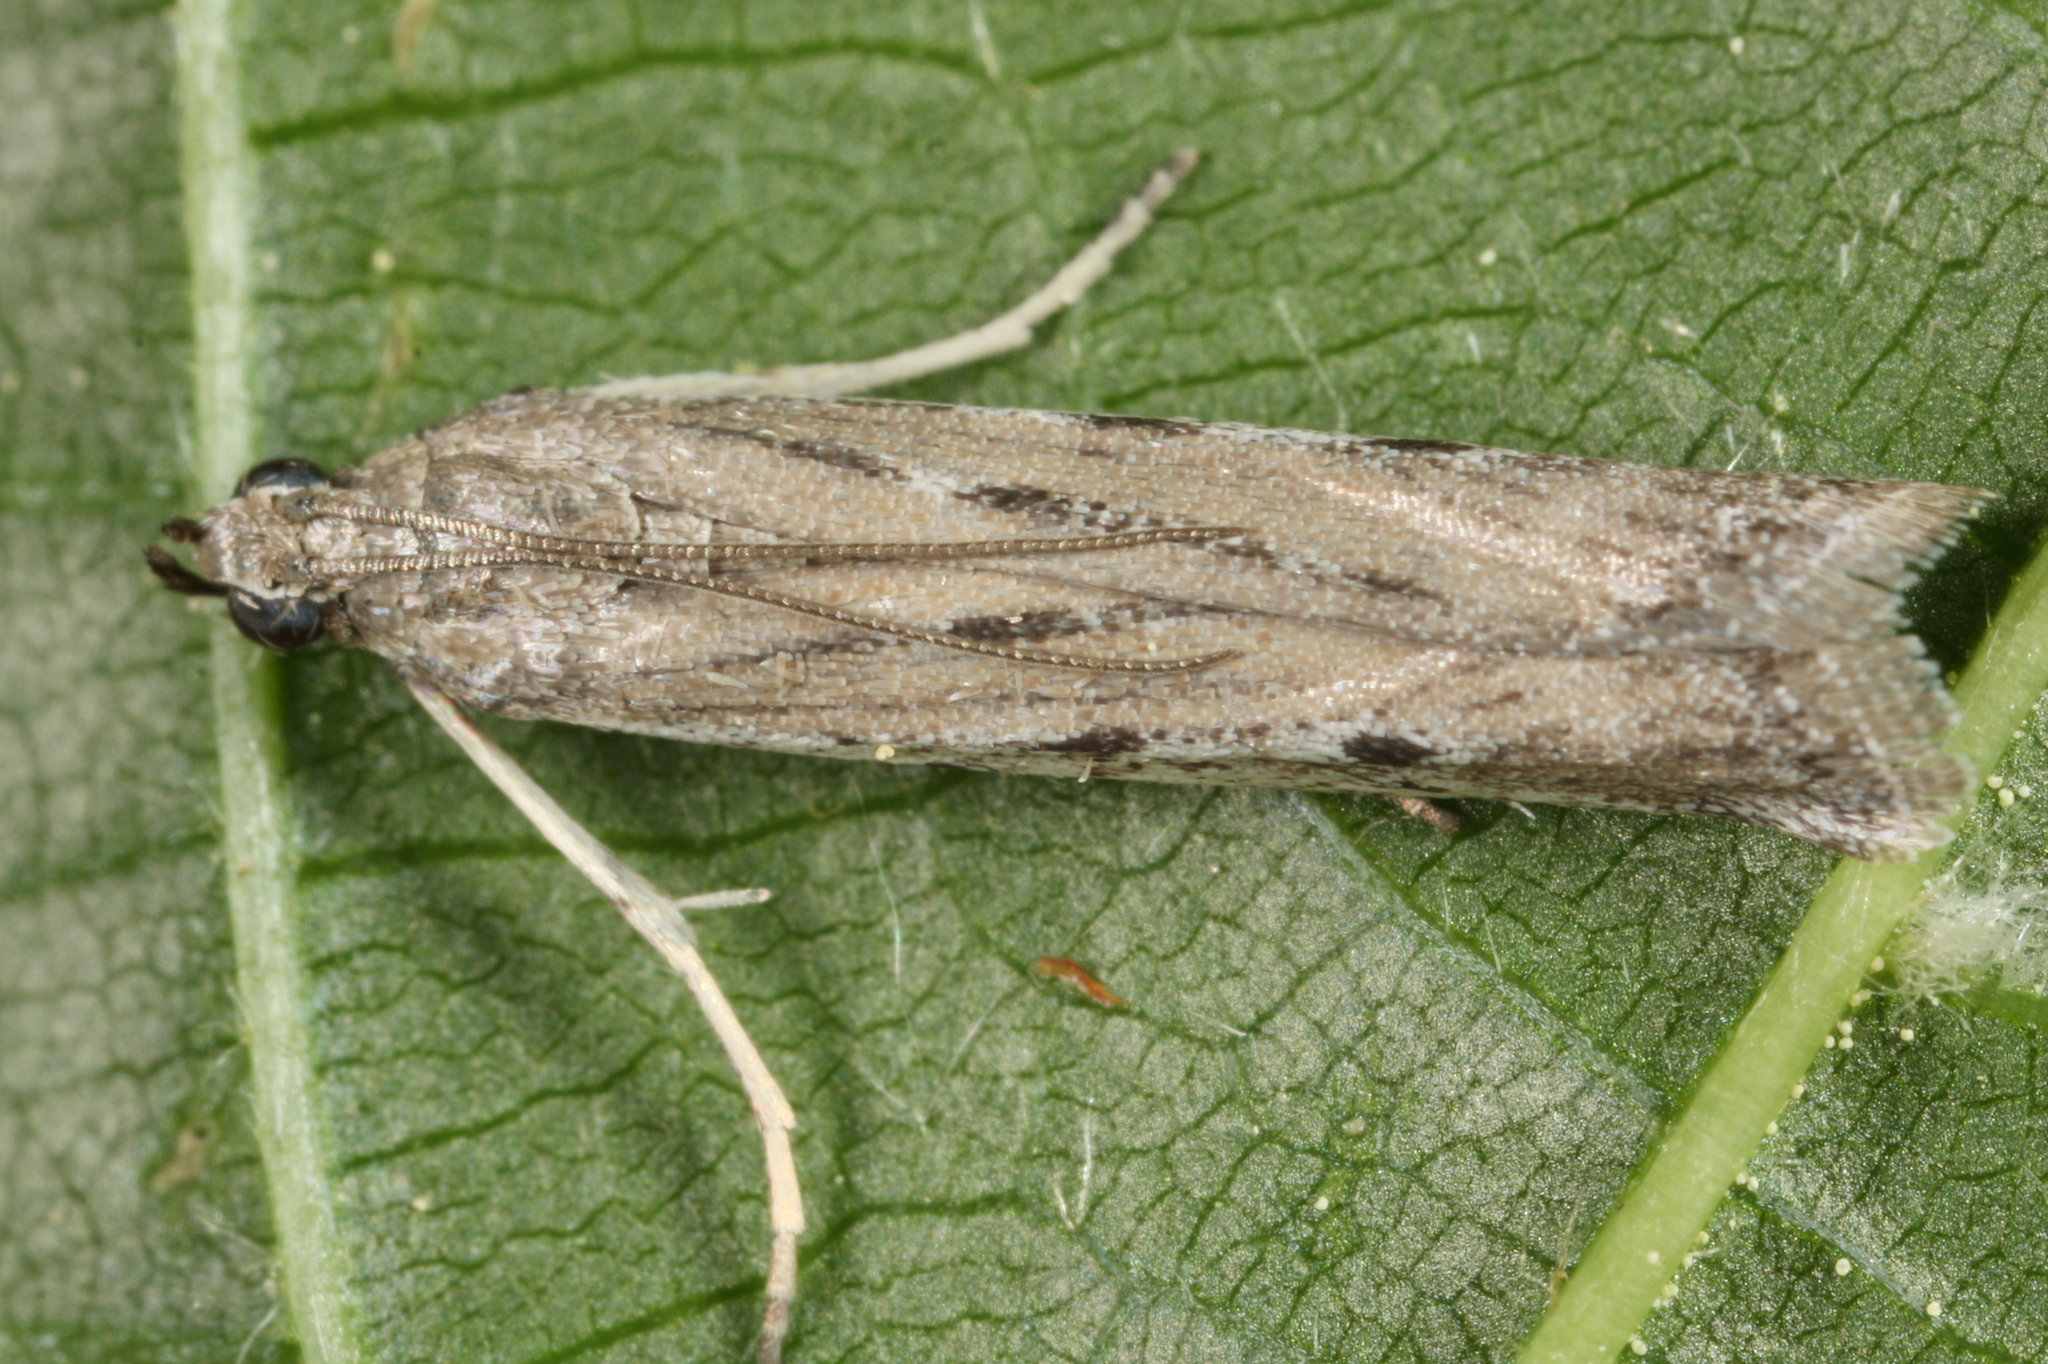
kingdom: Animalia
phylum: Arthropoda
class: Insecta
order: Lepidoptera
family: Pyralidae
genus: Phycitodes
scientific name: Phycitodes albatella
